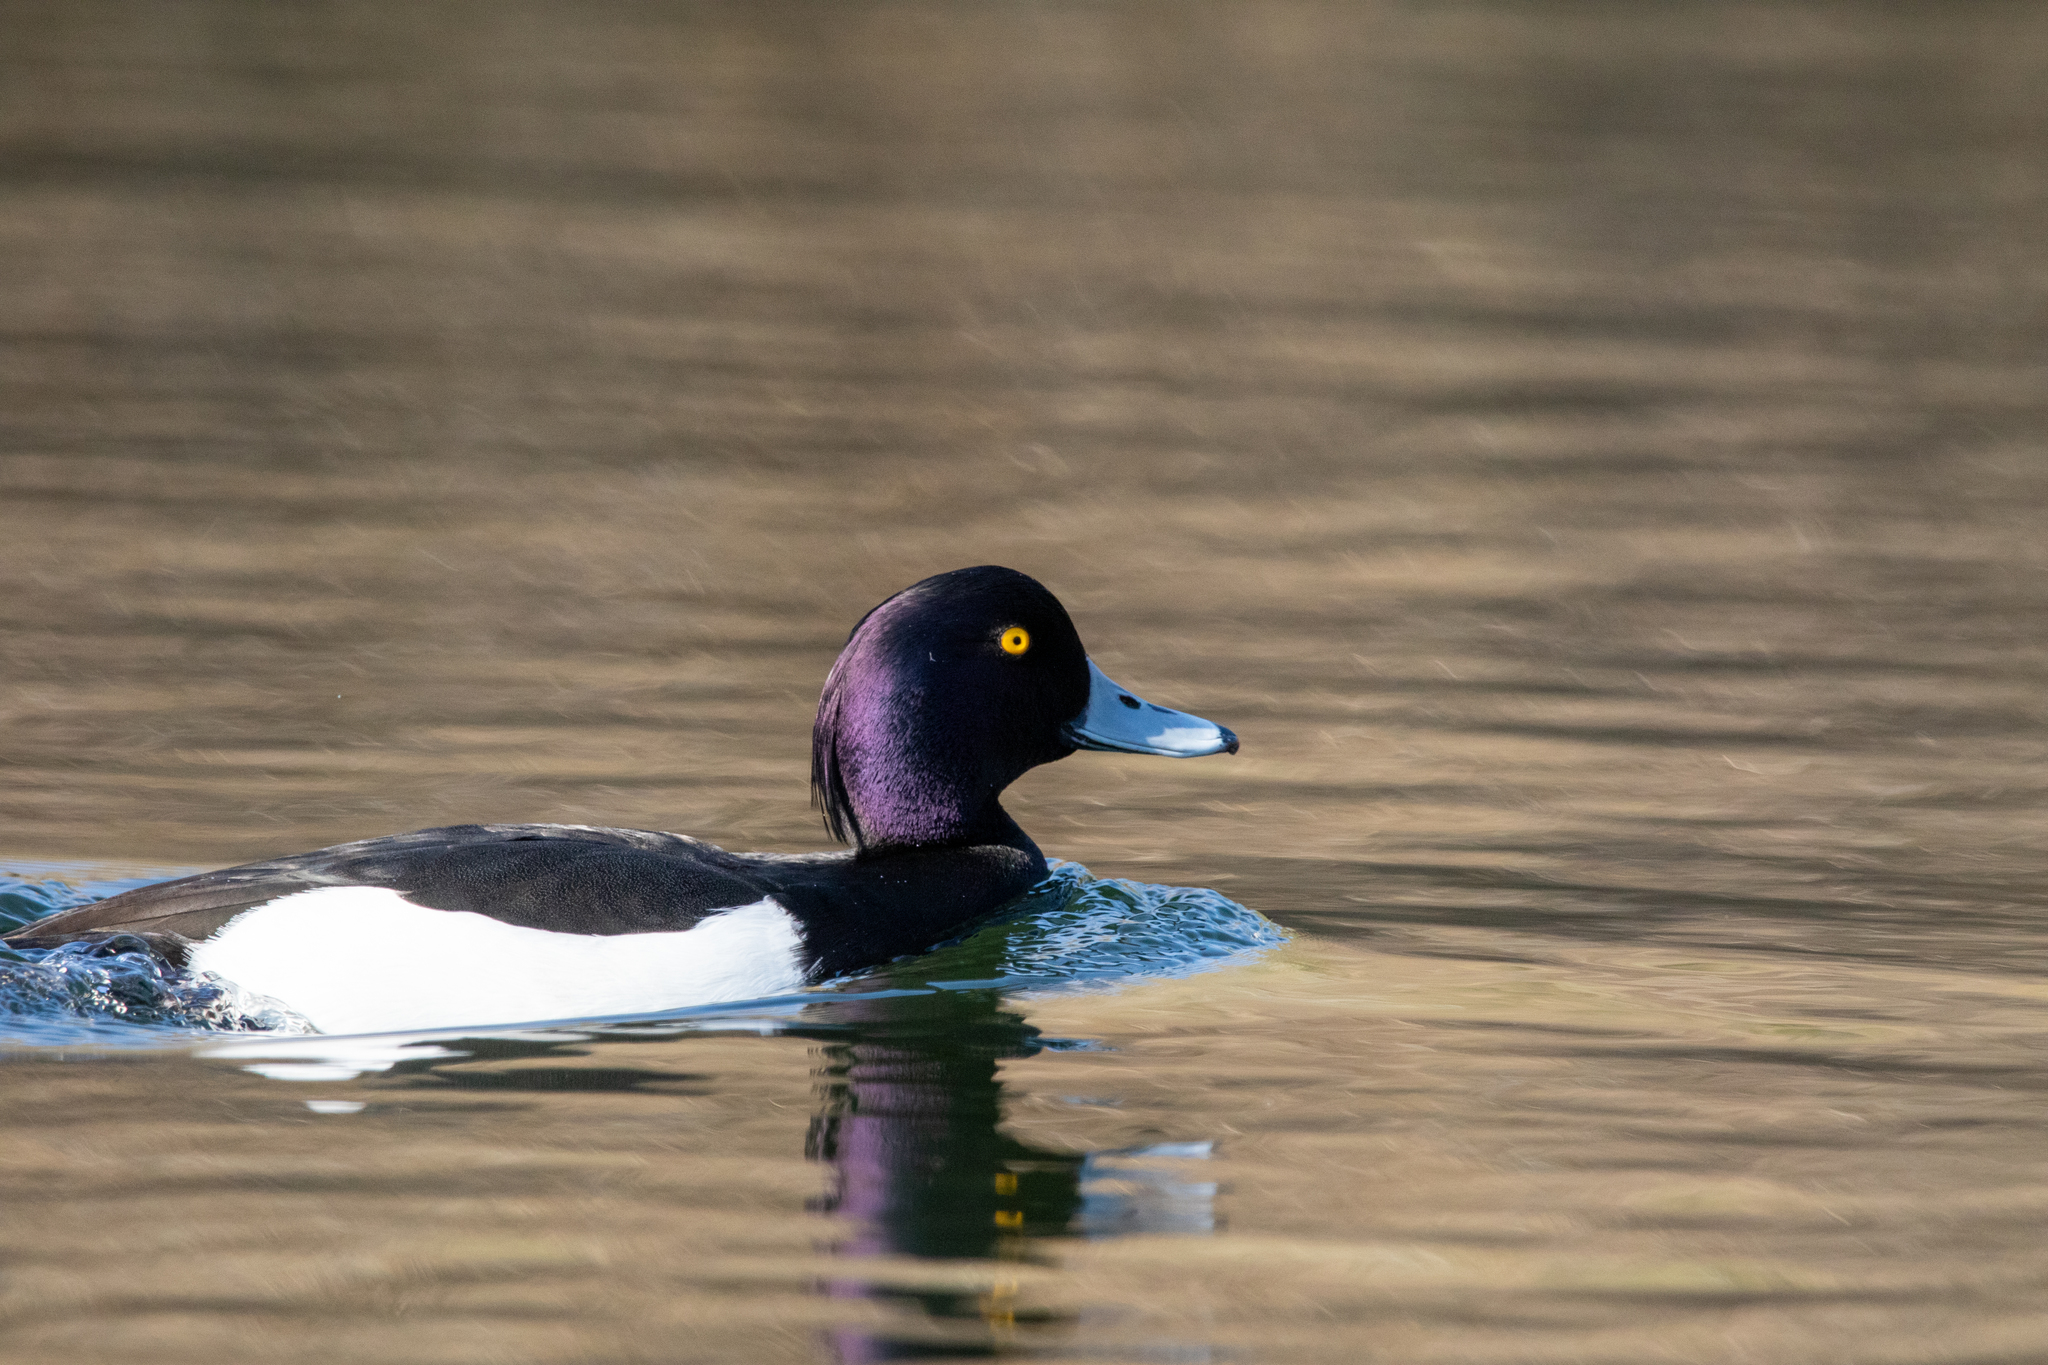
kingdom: Animalia
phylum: Chordata
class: Aves
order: Anseriformes
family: Anatidae
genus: Aythya
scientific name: Aythya fuligula
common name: Tufted duck
